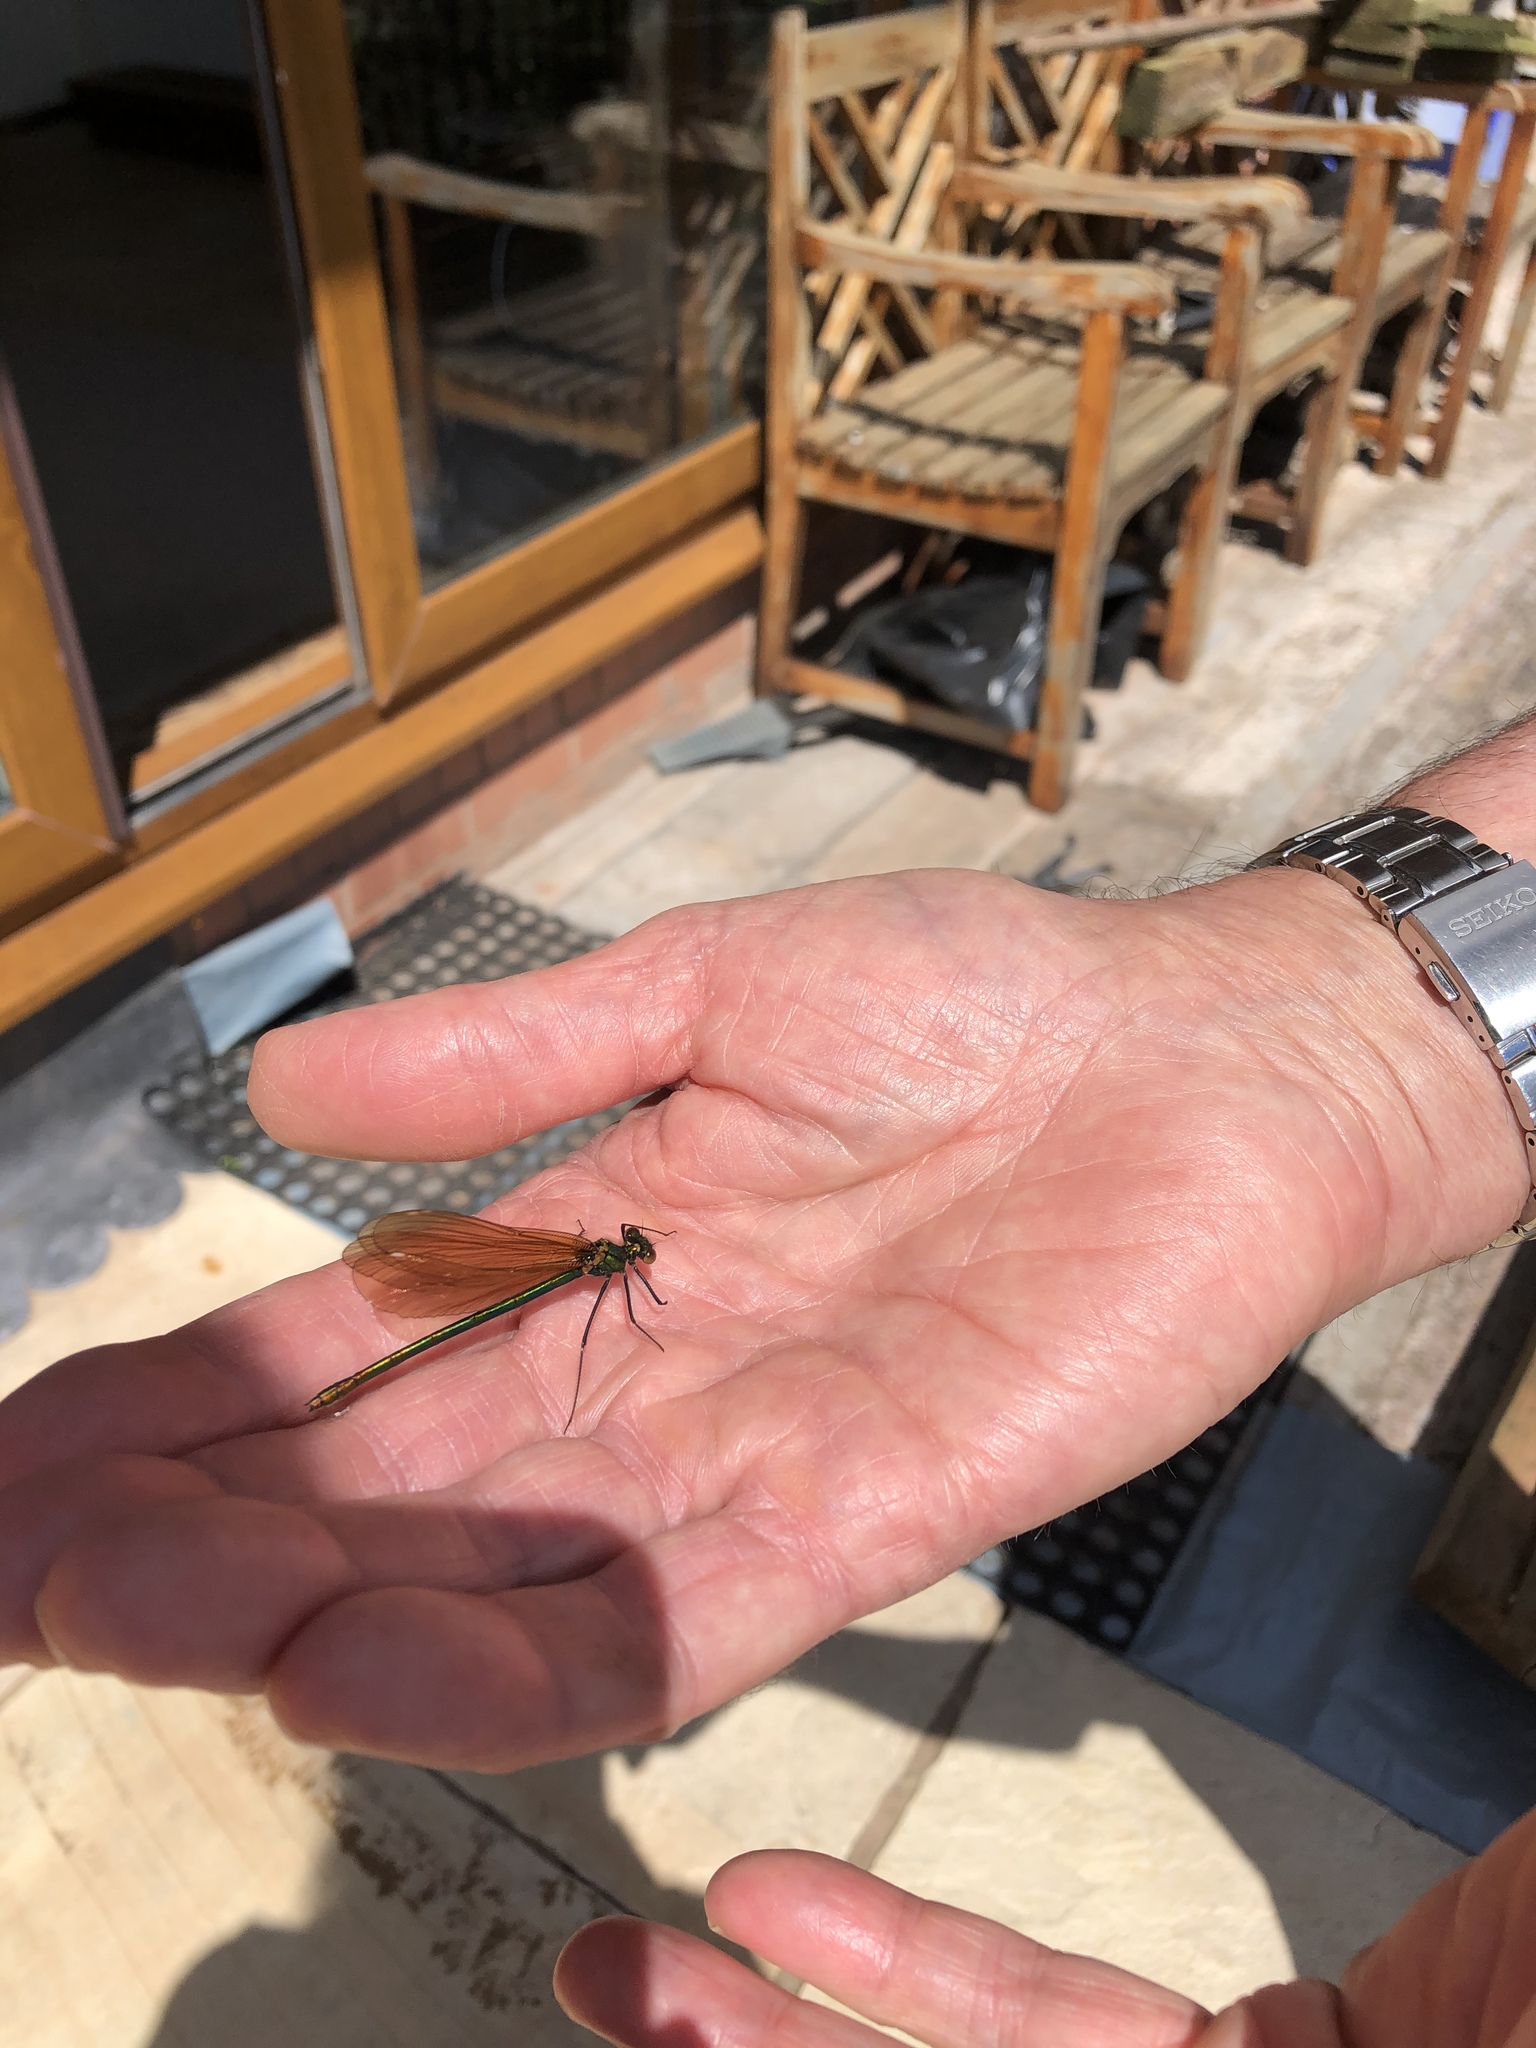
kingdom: Animalia
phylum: Arthropoda
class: Insecta
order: Odonata
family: Calopterygidae
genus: Calopteryx
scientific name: Calopteryx virgo
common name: Beautiful demoiselle
